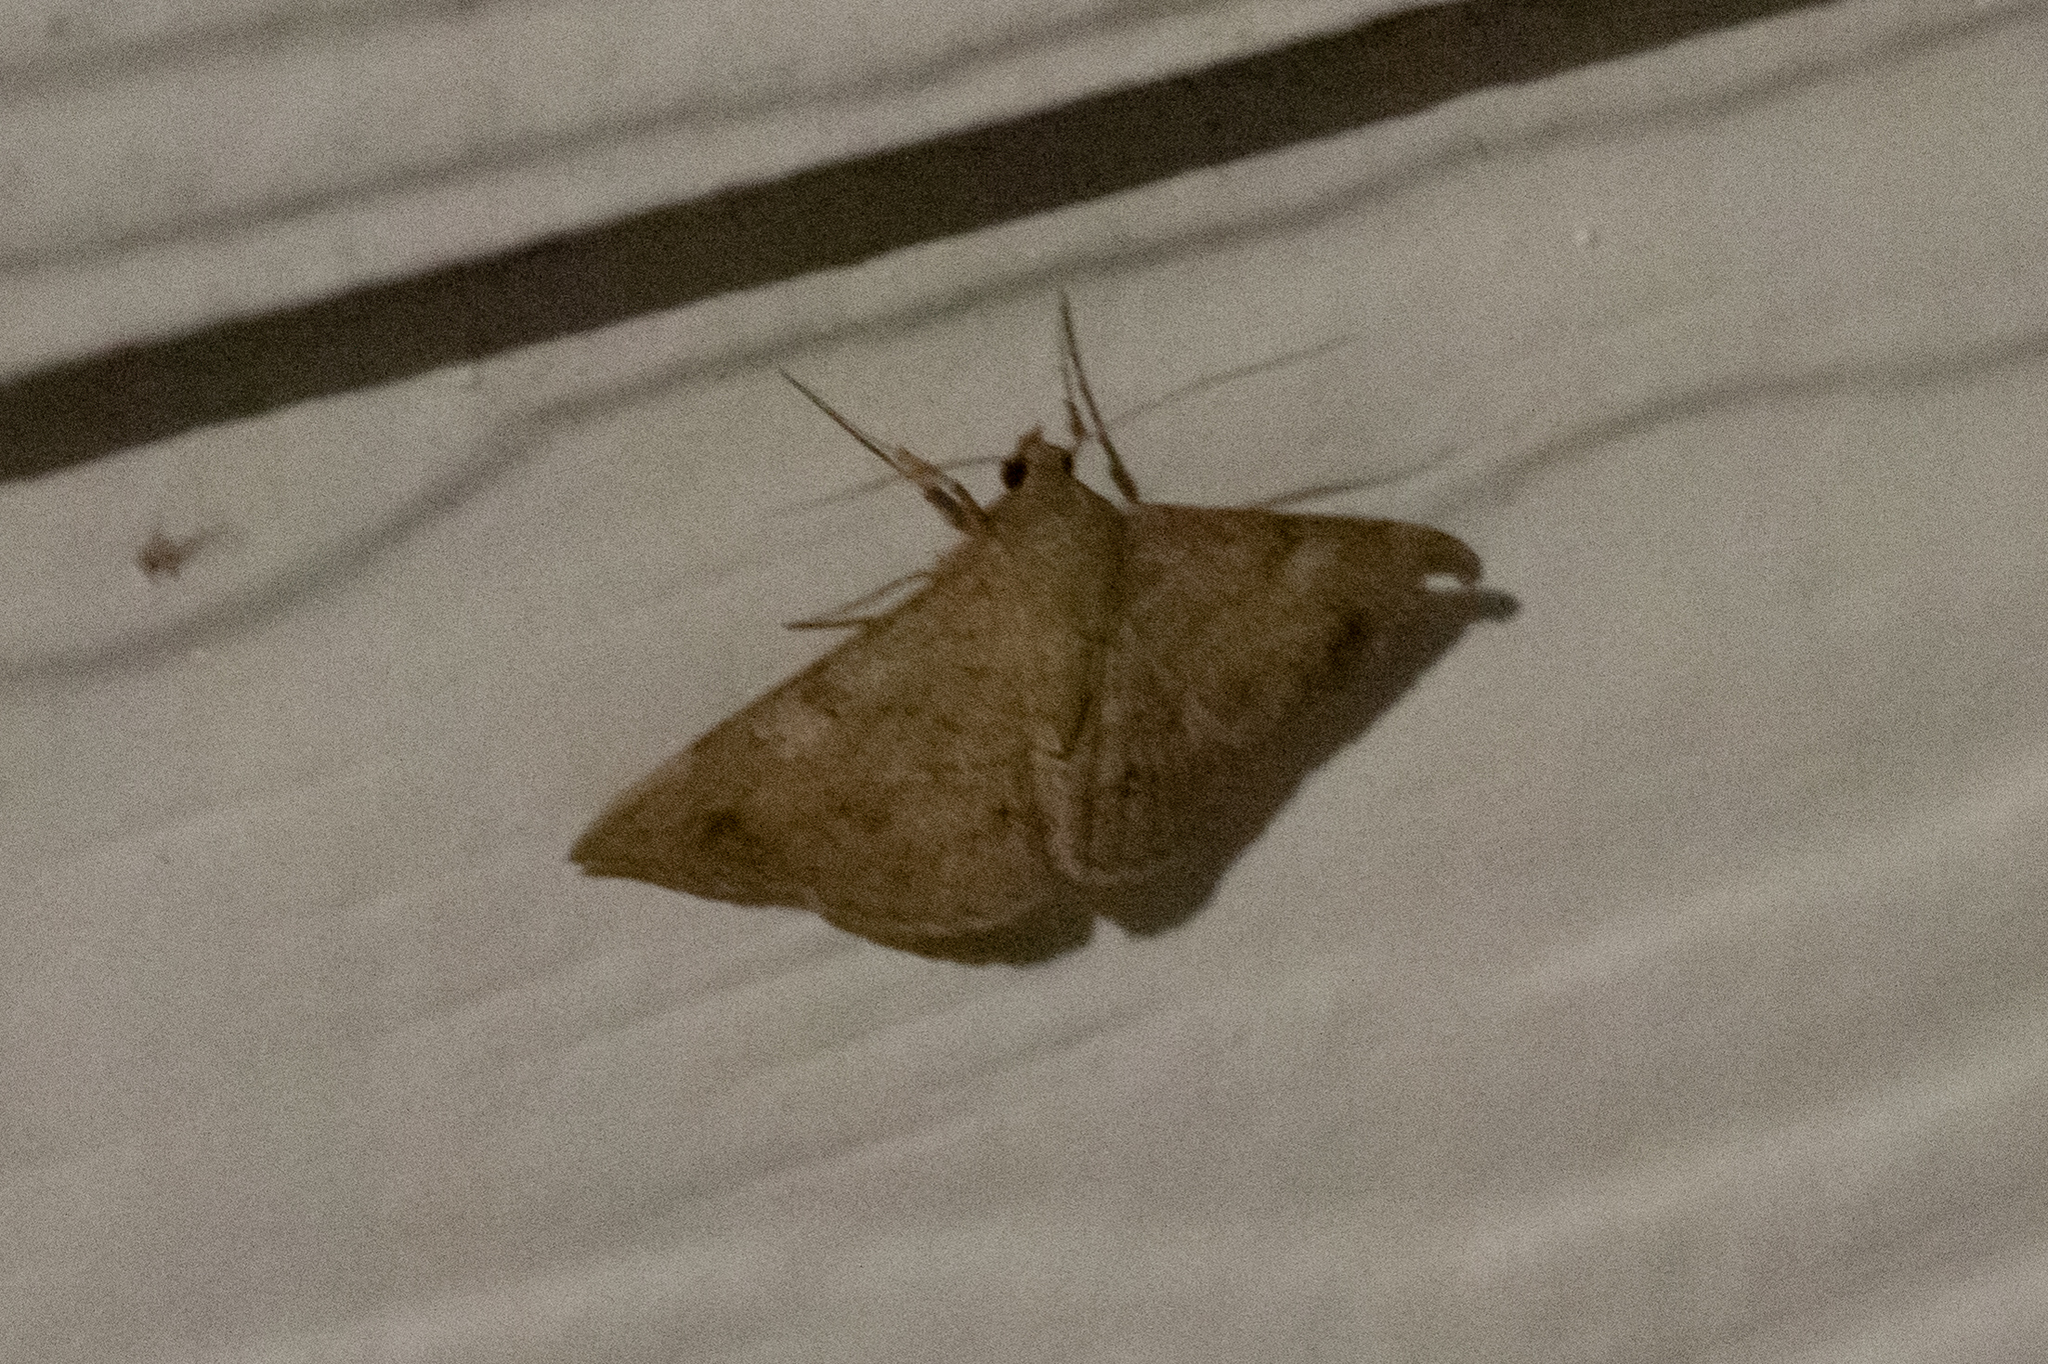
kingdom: Animalia
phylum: Arthropoda
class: Insecta
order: Lepidoptera
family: Erebidae
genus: Anticarsia
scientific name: Anticarsia gemmatalis
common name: Cutworm moth
